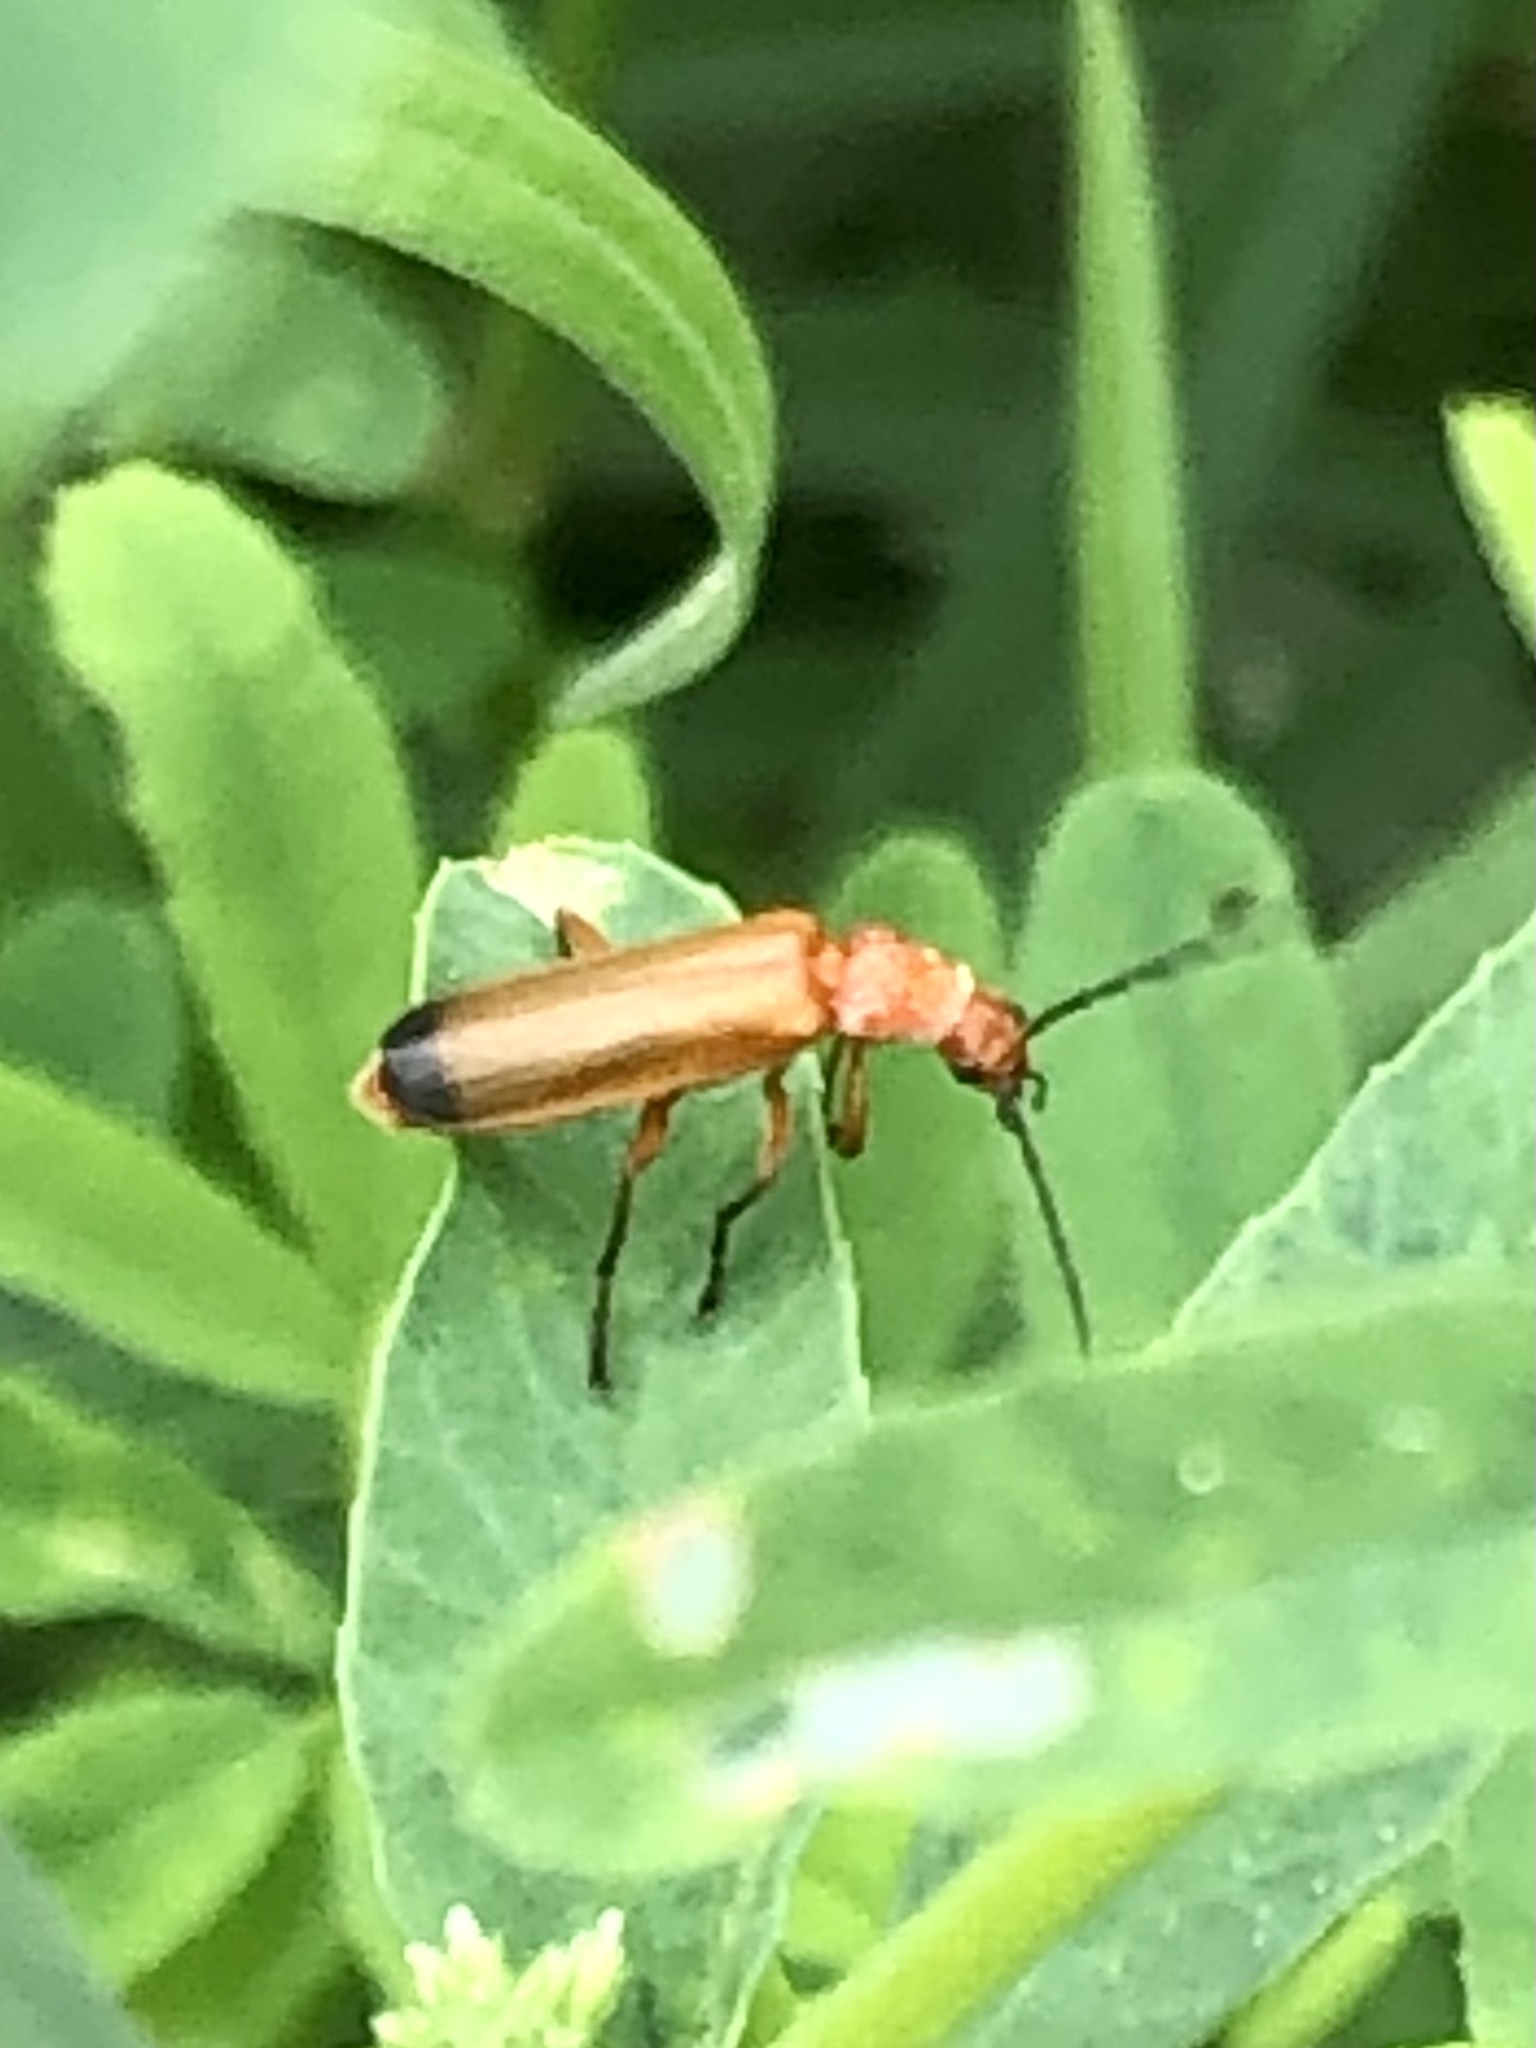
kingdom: Animalia
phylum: Arthropoda
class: Insecta
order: Coleoptera
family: Cantharidae
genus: Rhagonycha
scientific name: Rhagonycha fulva
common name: Common red soldier beetle
